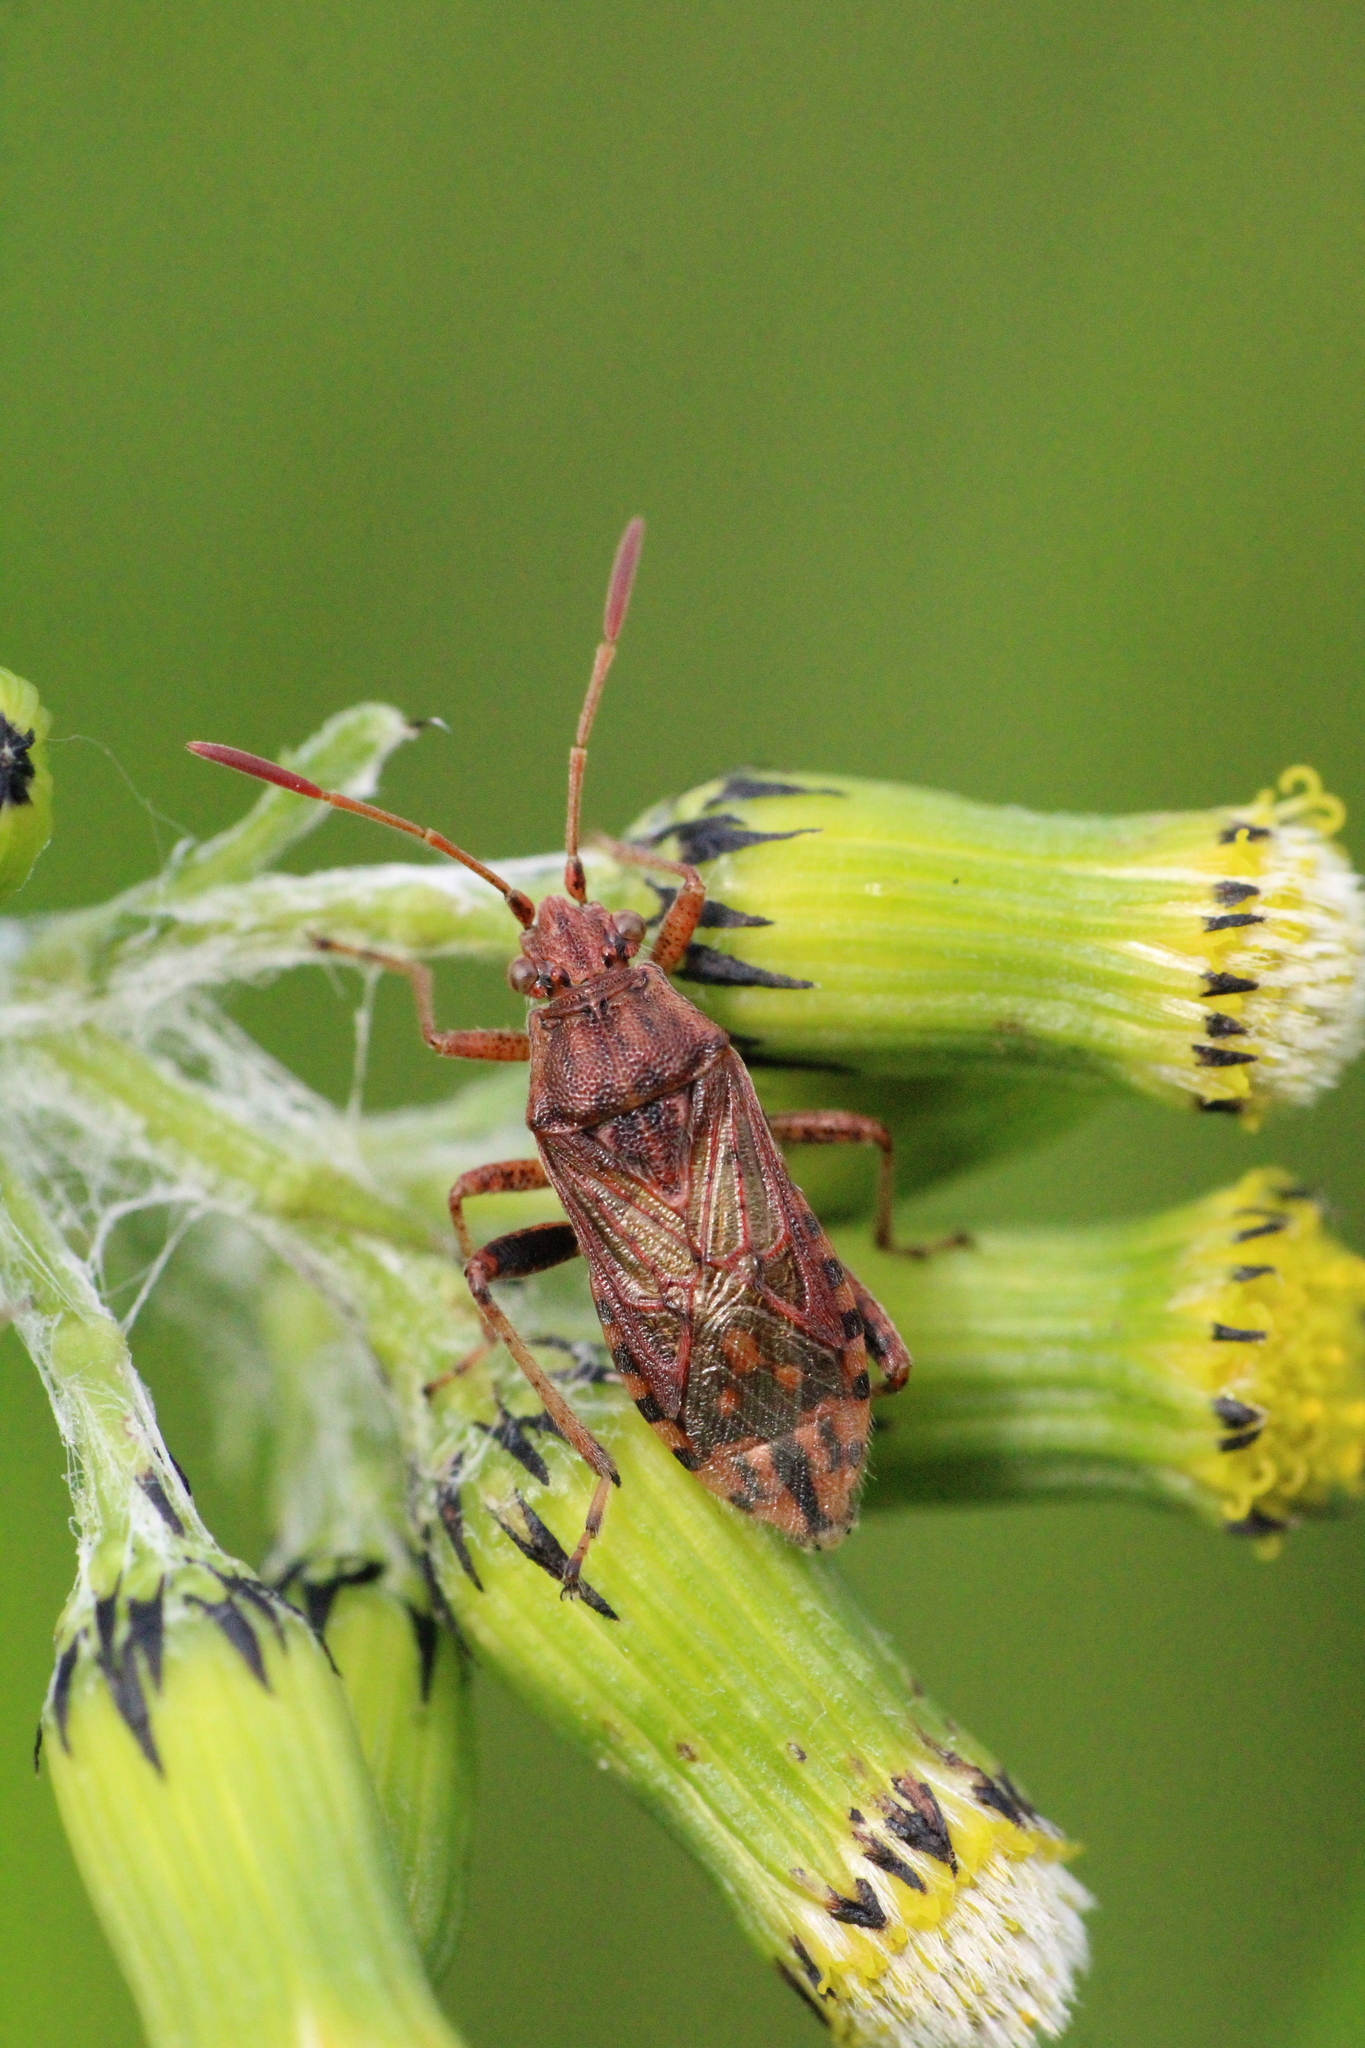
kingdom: Animalia
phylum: Arthropoda
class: Insecta
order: Hemiptera
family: Rhopalidae
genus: Stictopleurus
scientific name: Stictopleurus punctatonervosus
